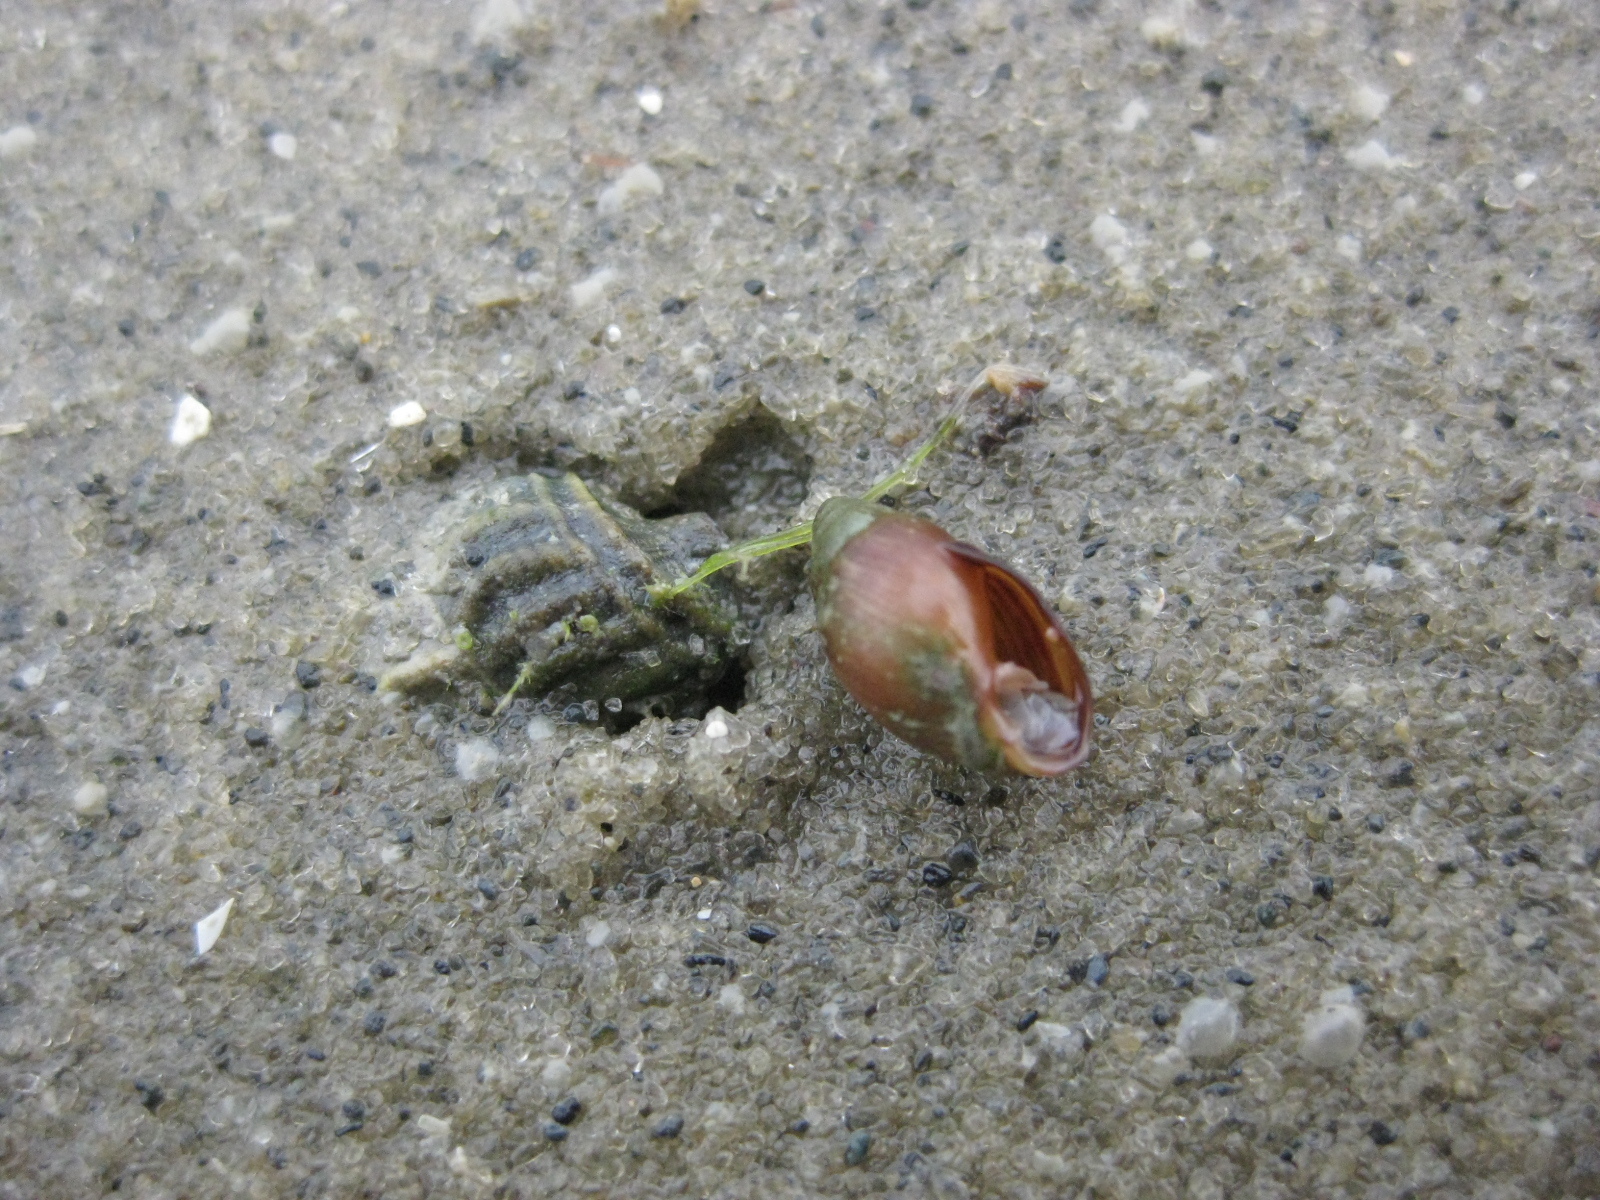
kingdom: Animalia
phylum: Mollusca
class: Gastropoda
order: Ellobiida
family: Ellobiidae
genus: Pleuroloba
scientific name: Pleuroloba costellaris
